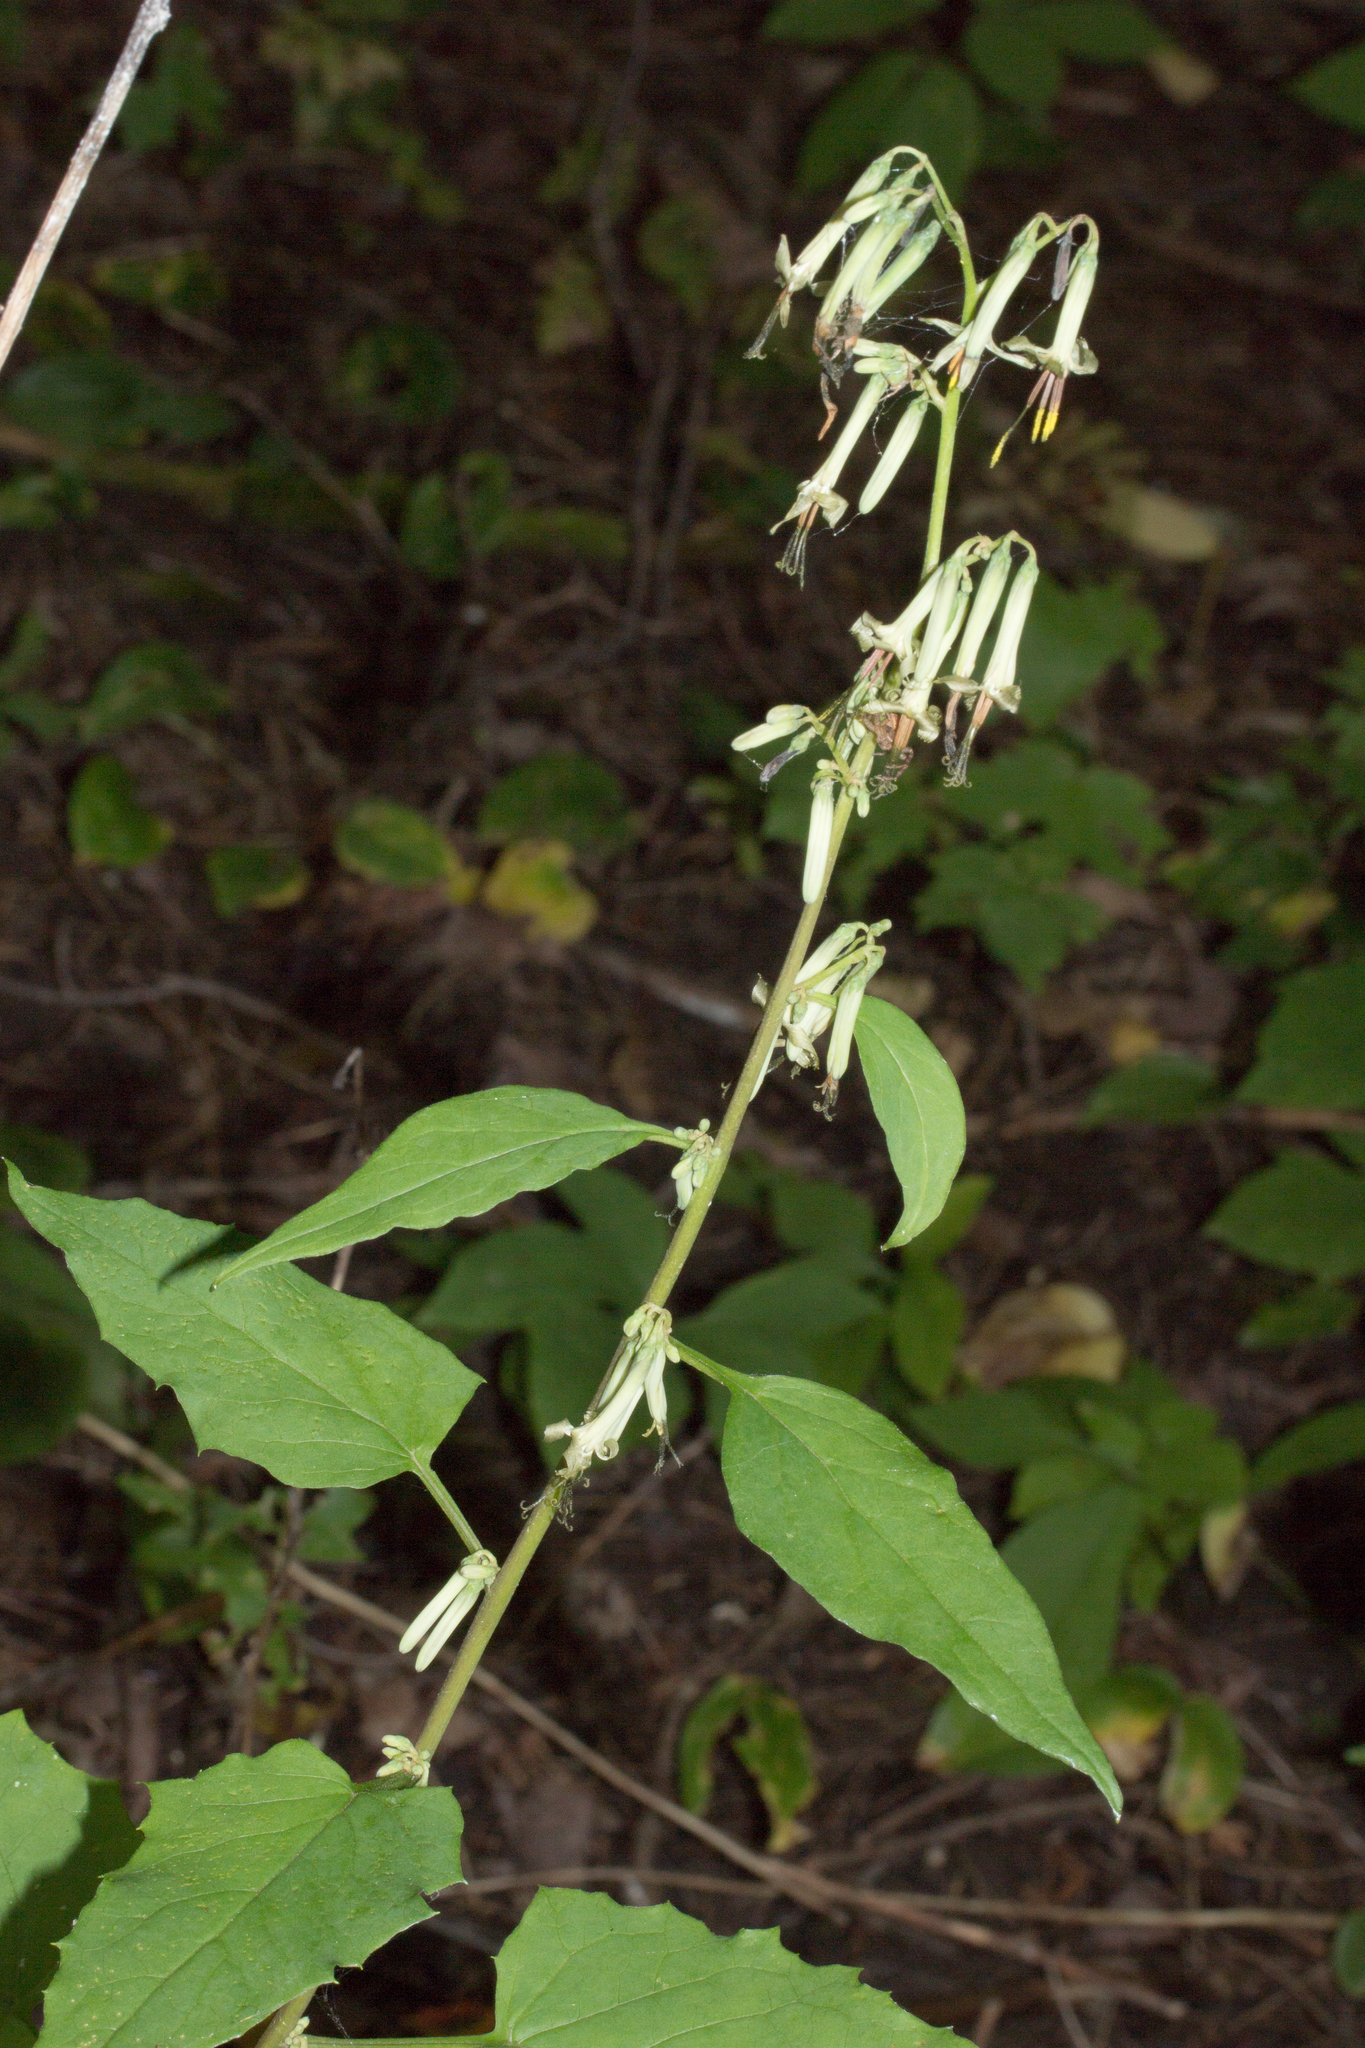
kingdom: Plantae
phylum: Tracheophyta
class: Magnoliopsida
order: Asterales
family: Asteraceae
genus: Nabalus
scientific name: Nabalus altissima
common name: Tall rattlesnakeroot
